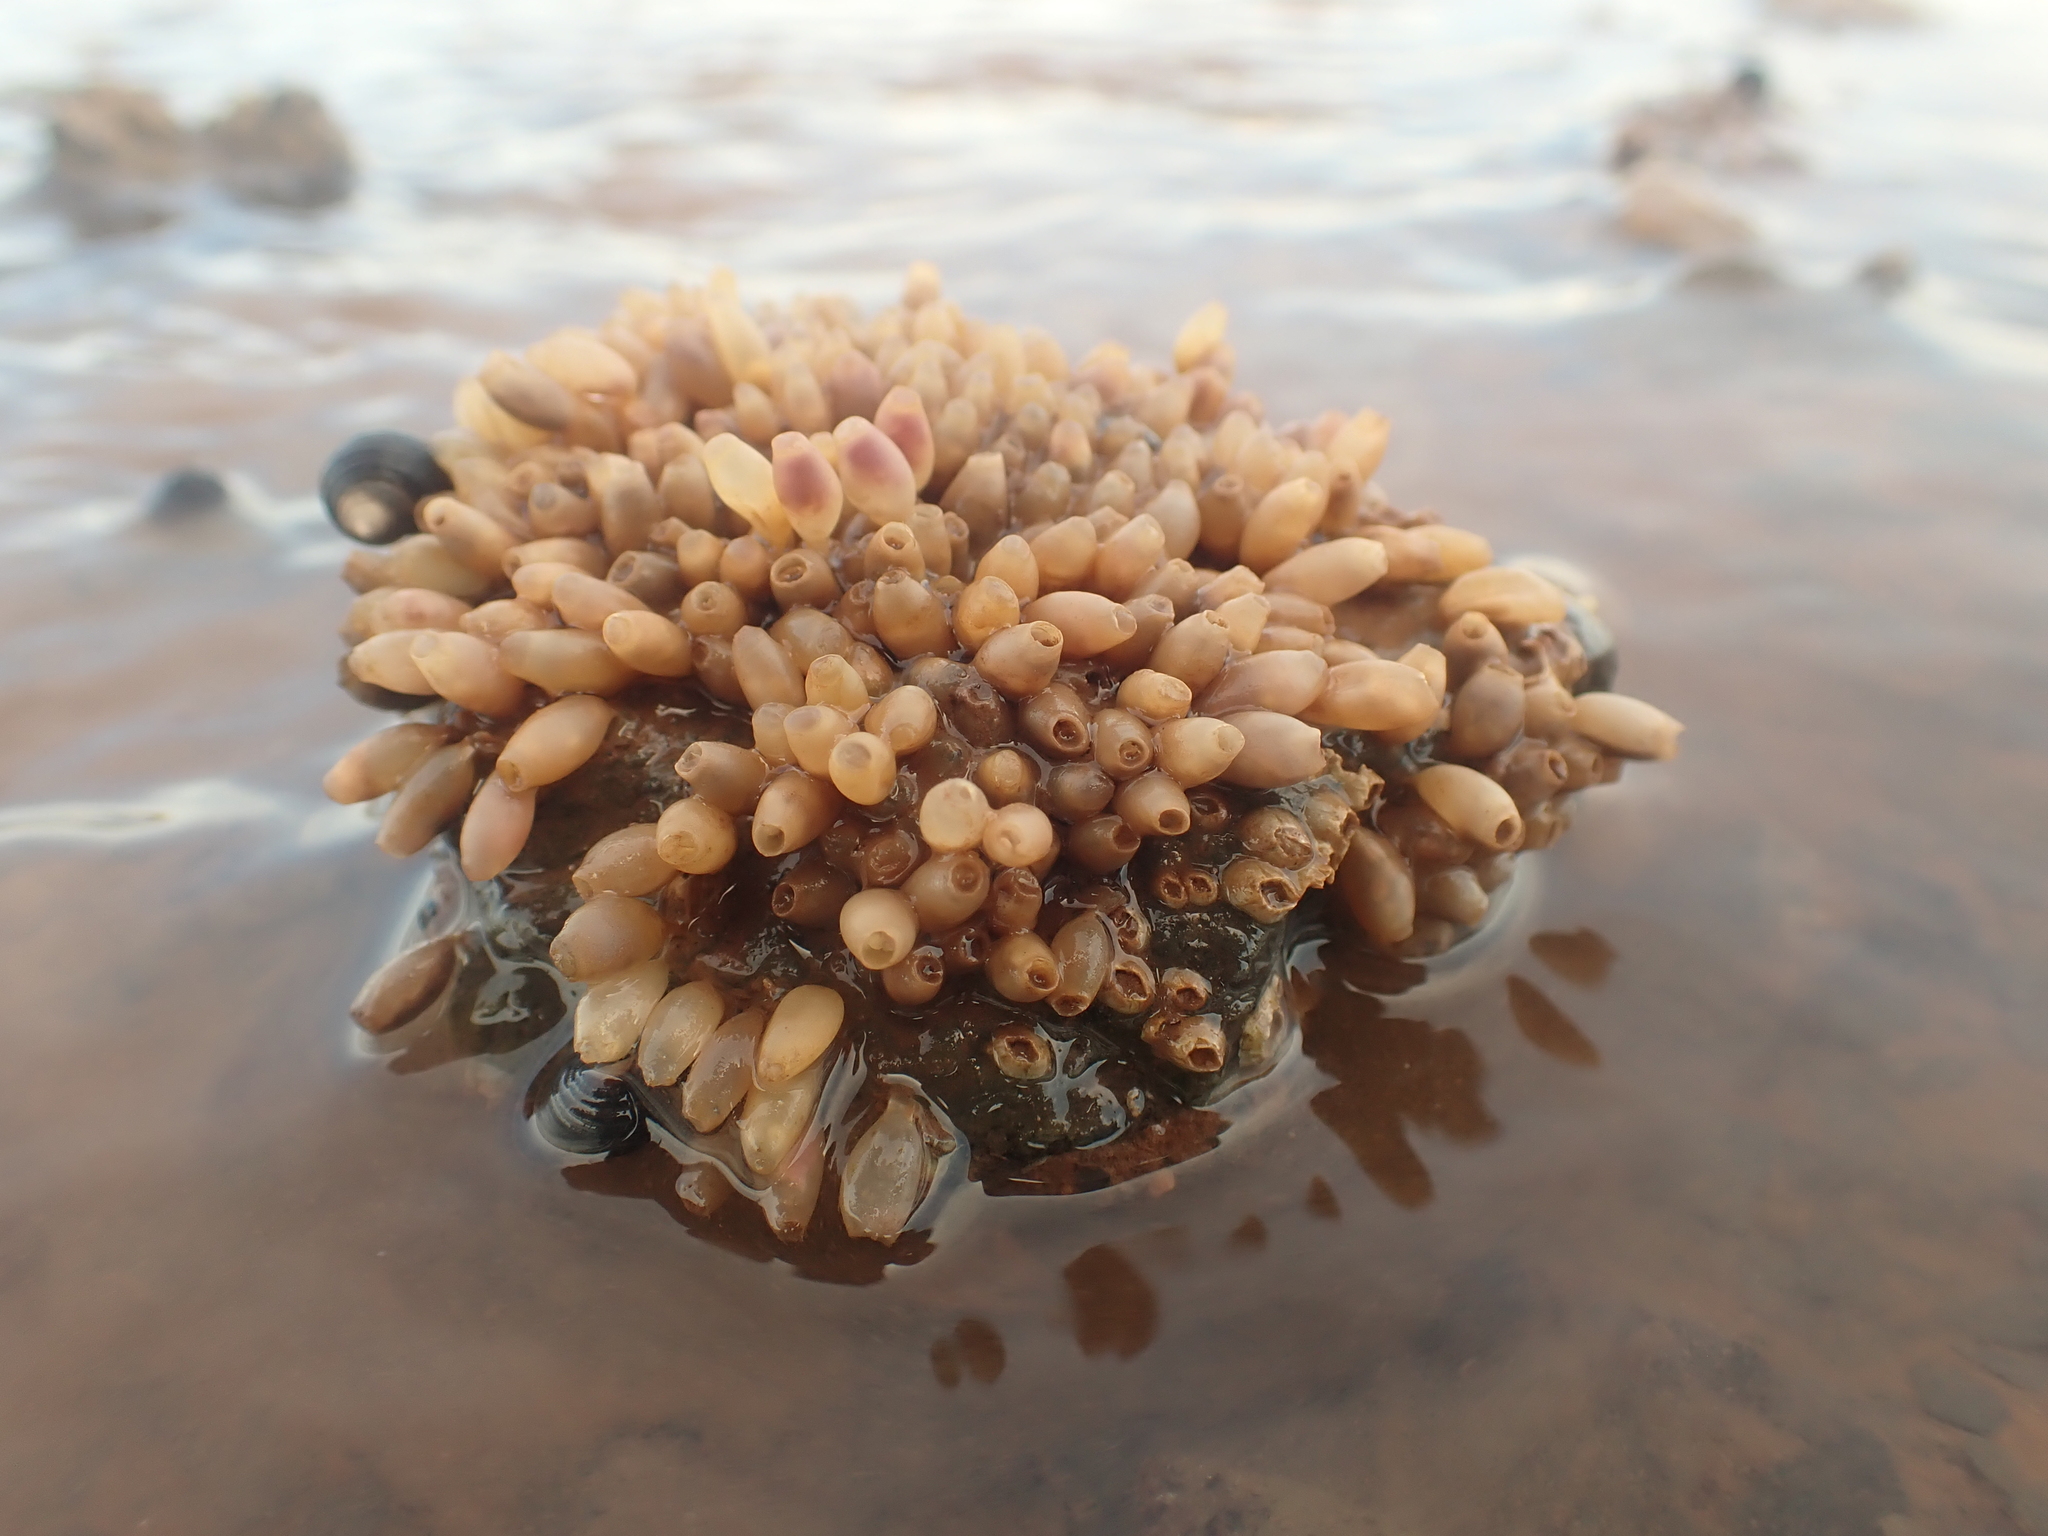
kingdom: Animalia
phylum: Mollusca
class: Gastropoda
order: Neogastropoda
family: Muricidae
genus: Nucella
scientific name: Nucella lapillus
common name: Dog whelk
